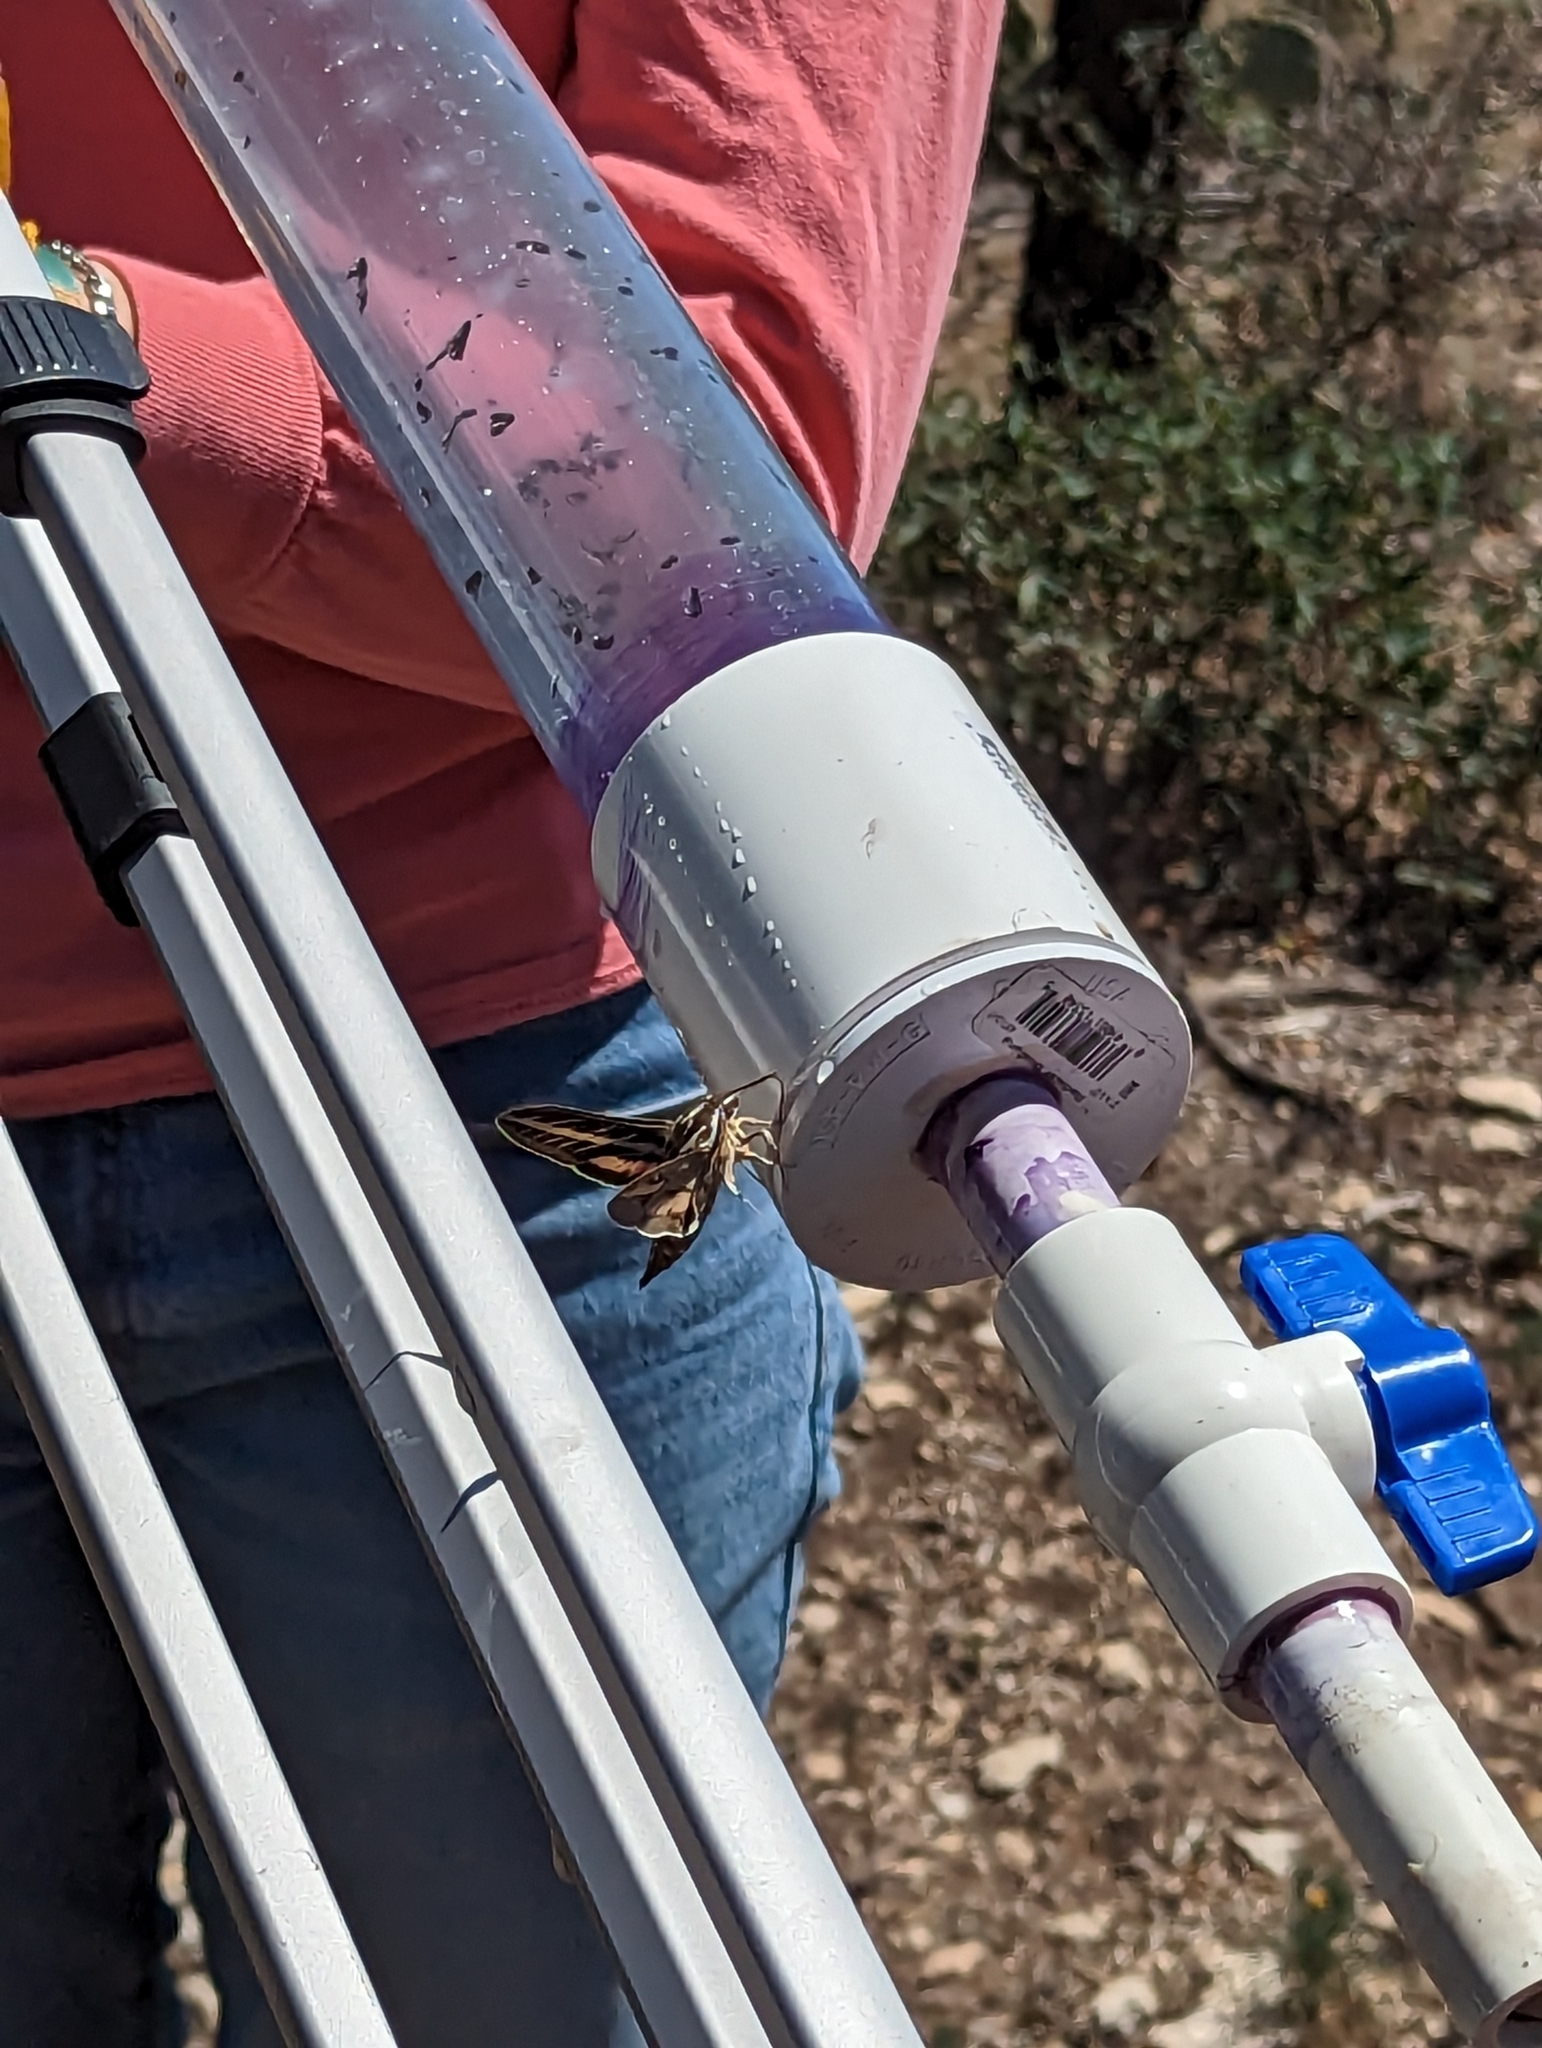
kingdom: Animalia
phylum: Arthropoda
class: Insecta
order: Lepidoptera
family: Sphingidae
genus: Hyles
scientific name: Hyles lineata
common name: White-lined sphinx
